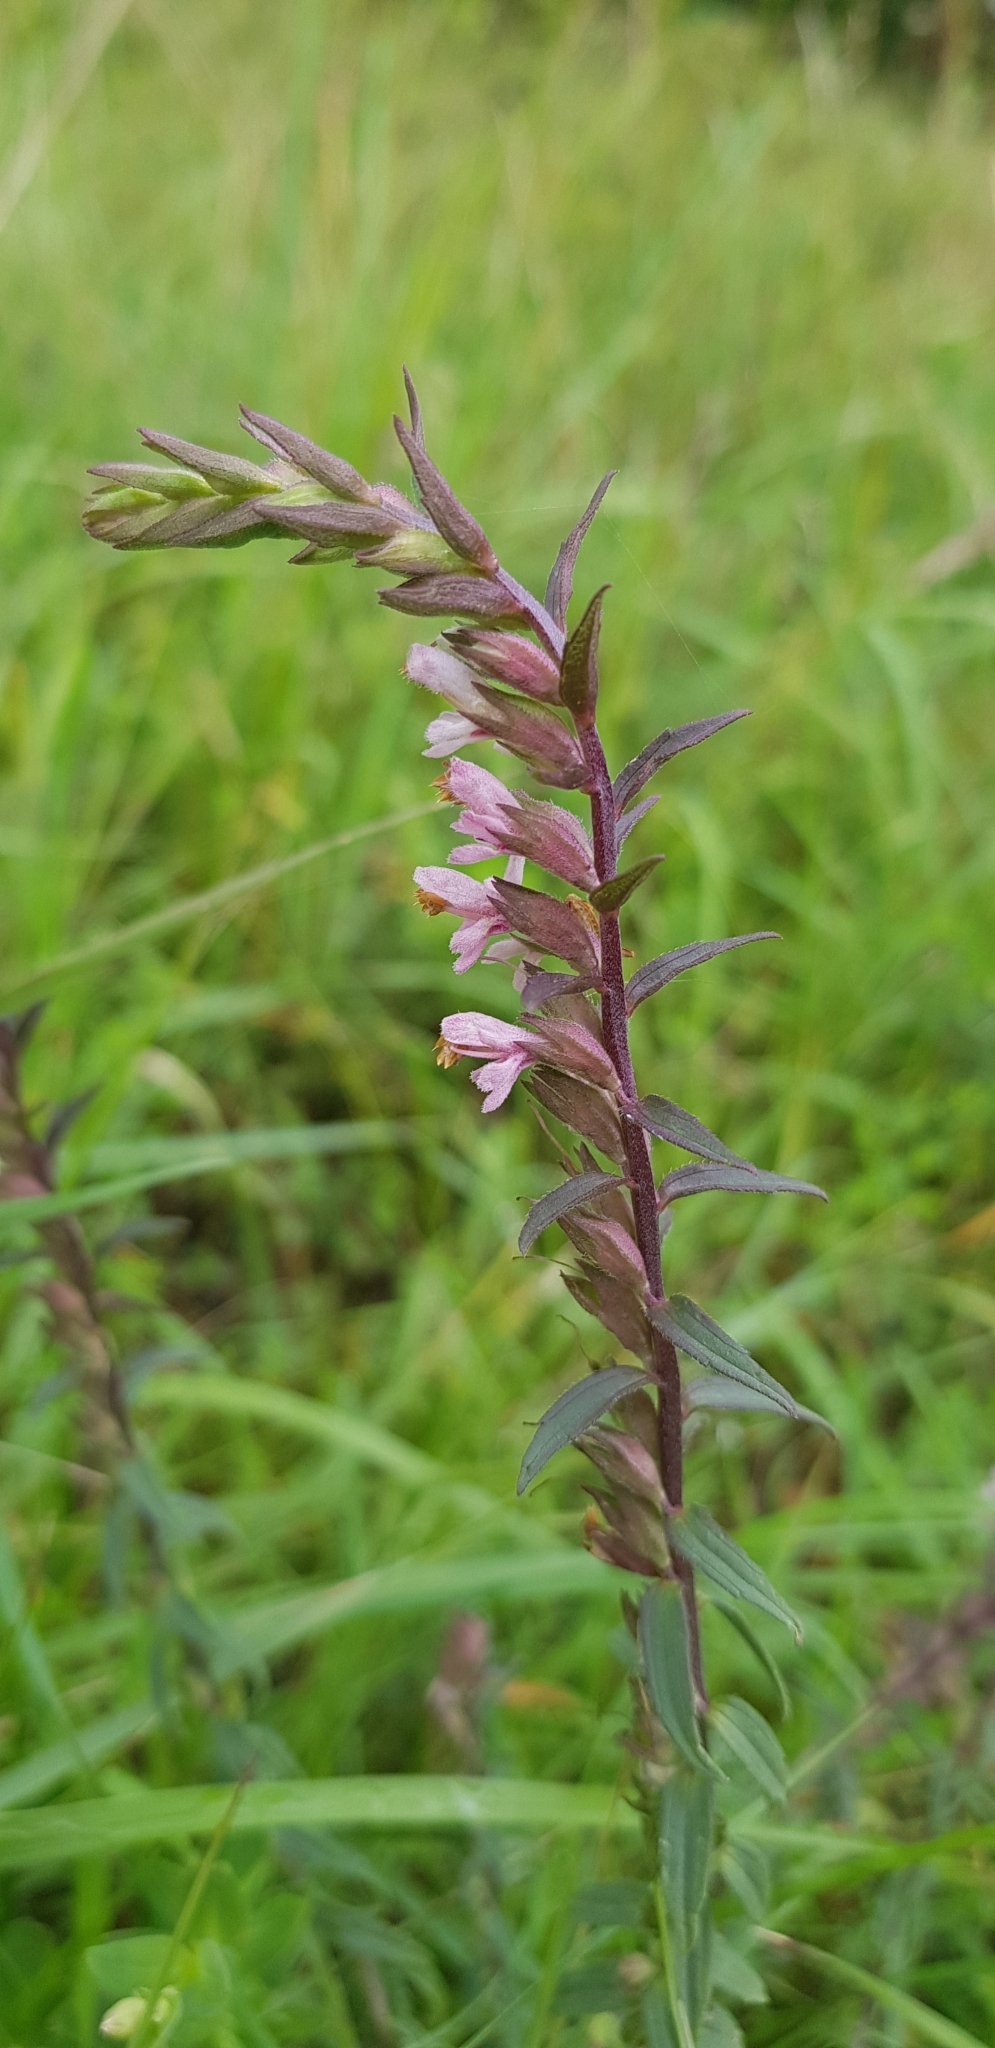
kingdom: Plantae
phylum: Tracheophyta
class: Magnoliopsida
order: Lamiales
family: Orobanchaceae
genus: Odontites
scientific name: Odontites vulgaris
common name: Broomrape
